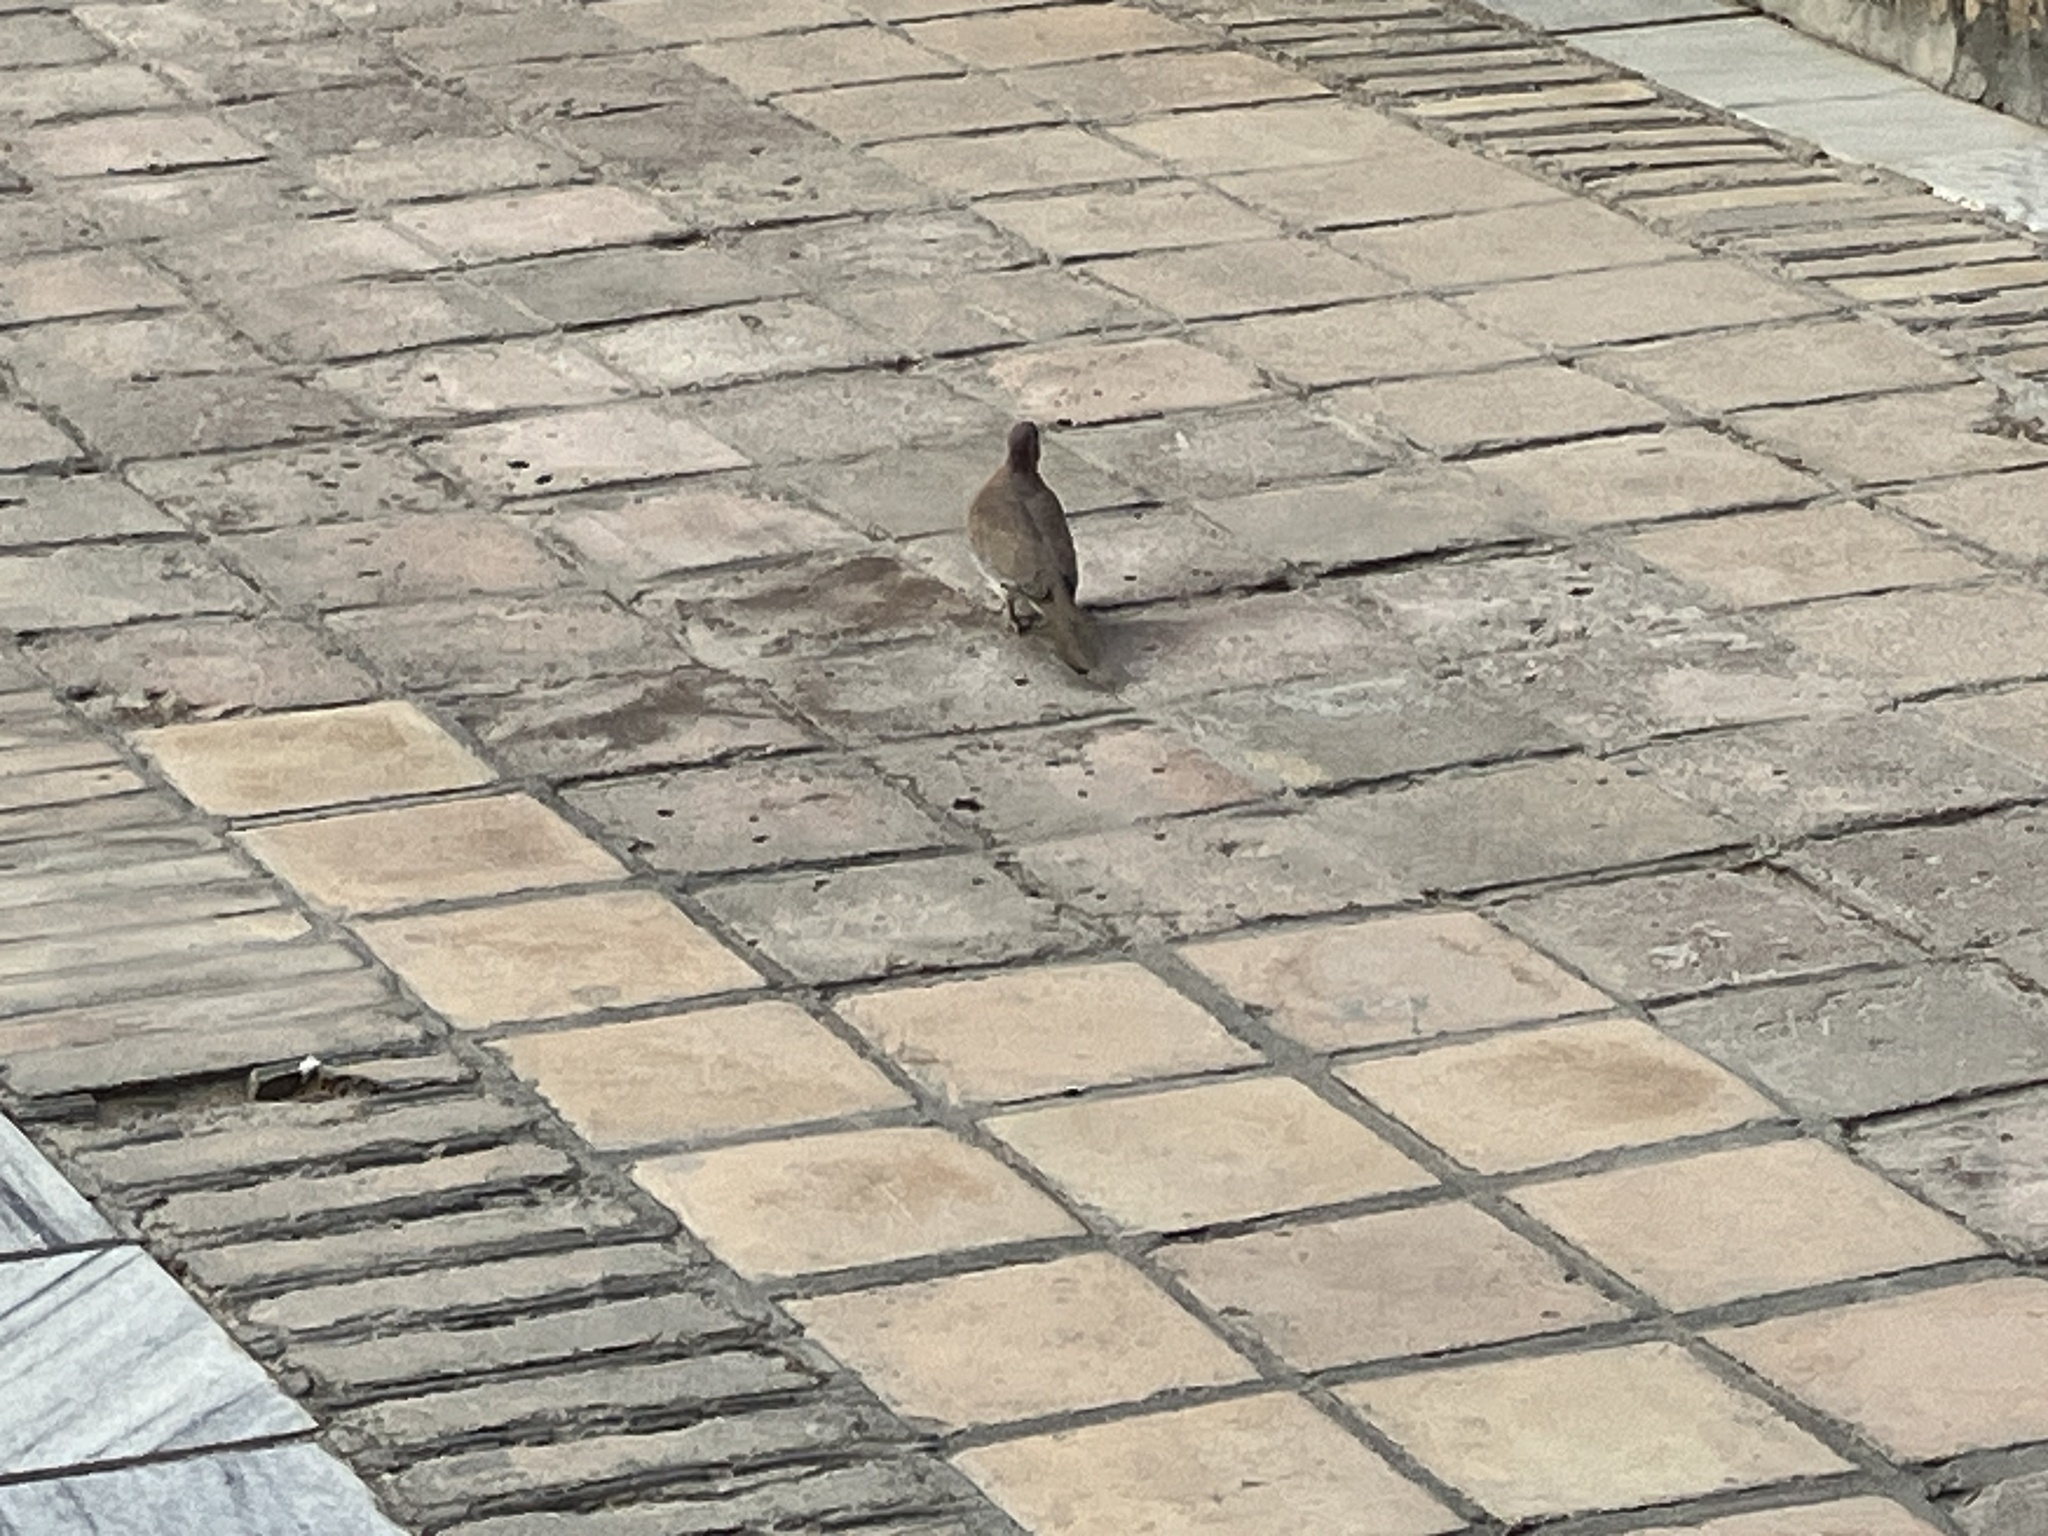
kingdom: Animalia
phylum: Chordata
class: Aves
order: Columbiformes
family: Columbidae
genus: Spilopelia
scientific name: Spilopelia senegalensis
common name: Laughing dove
